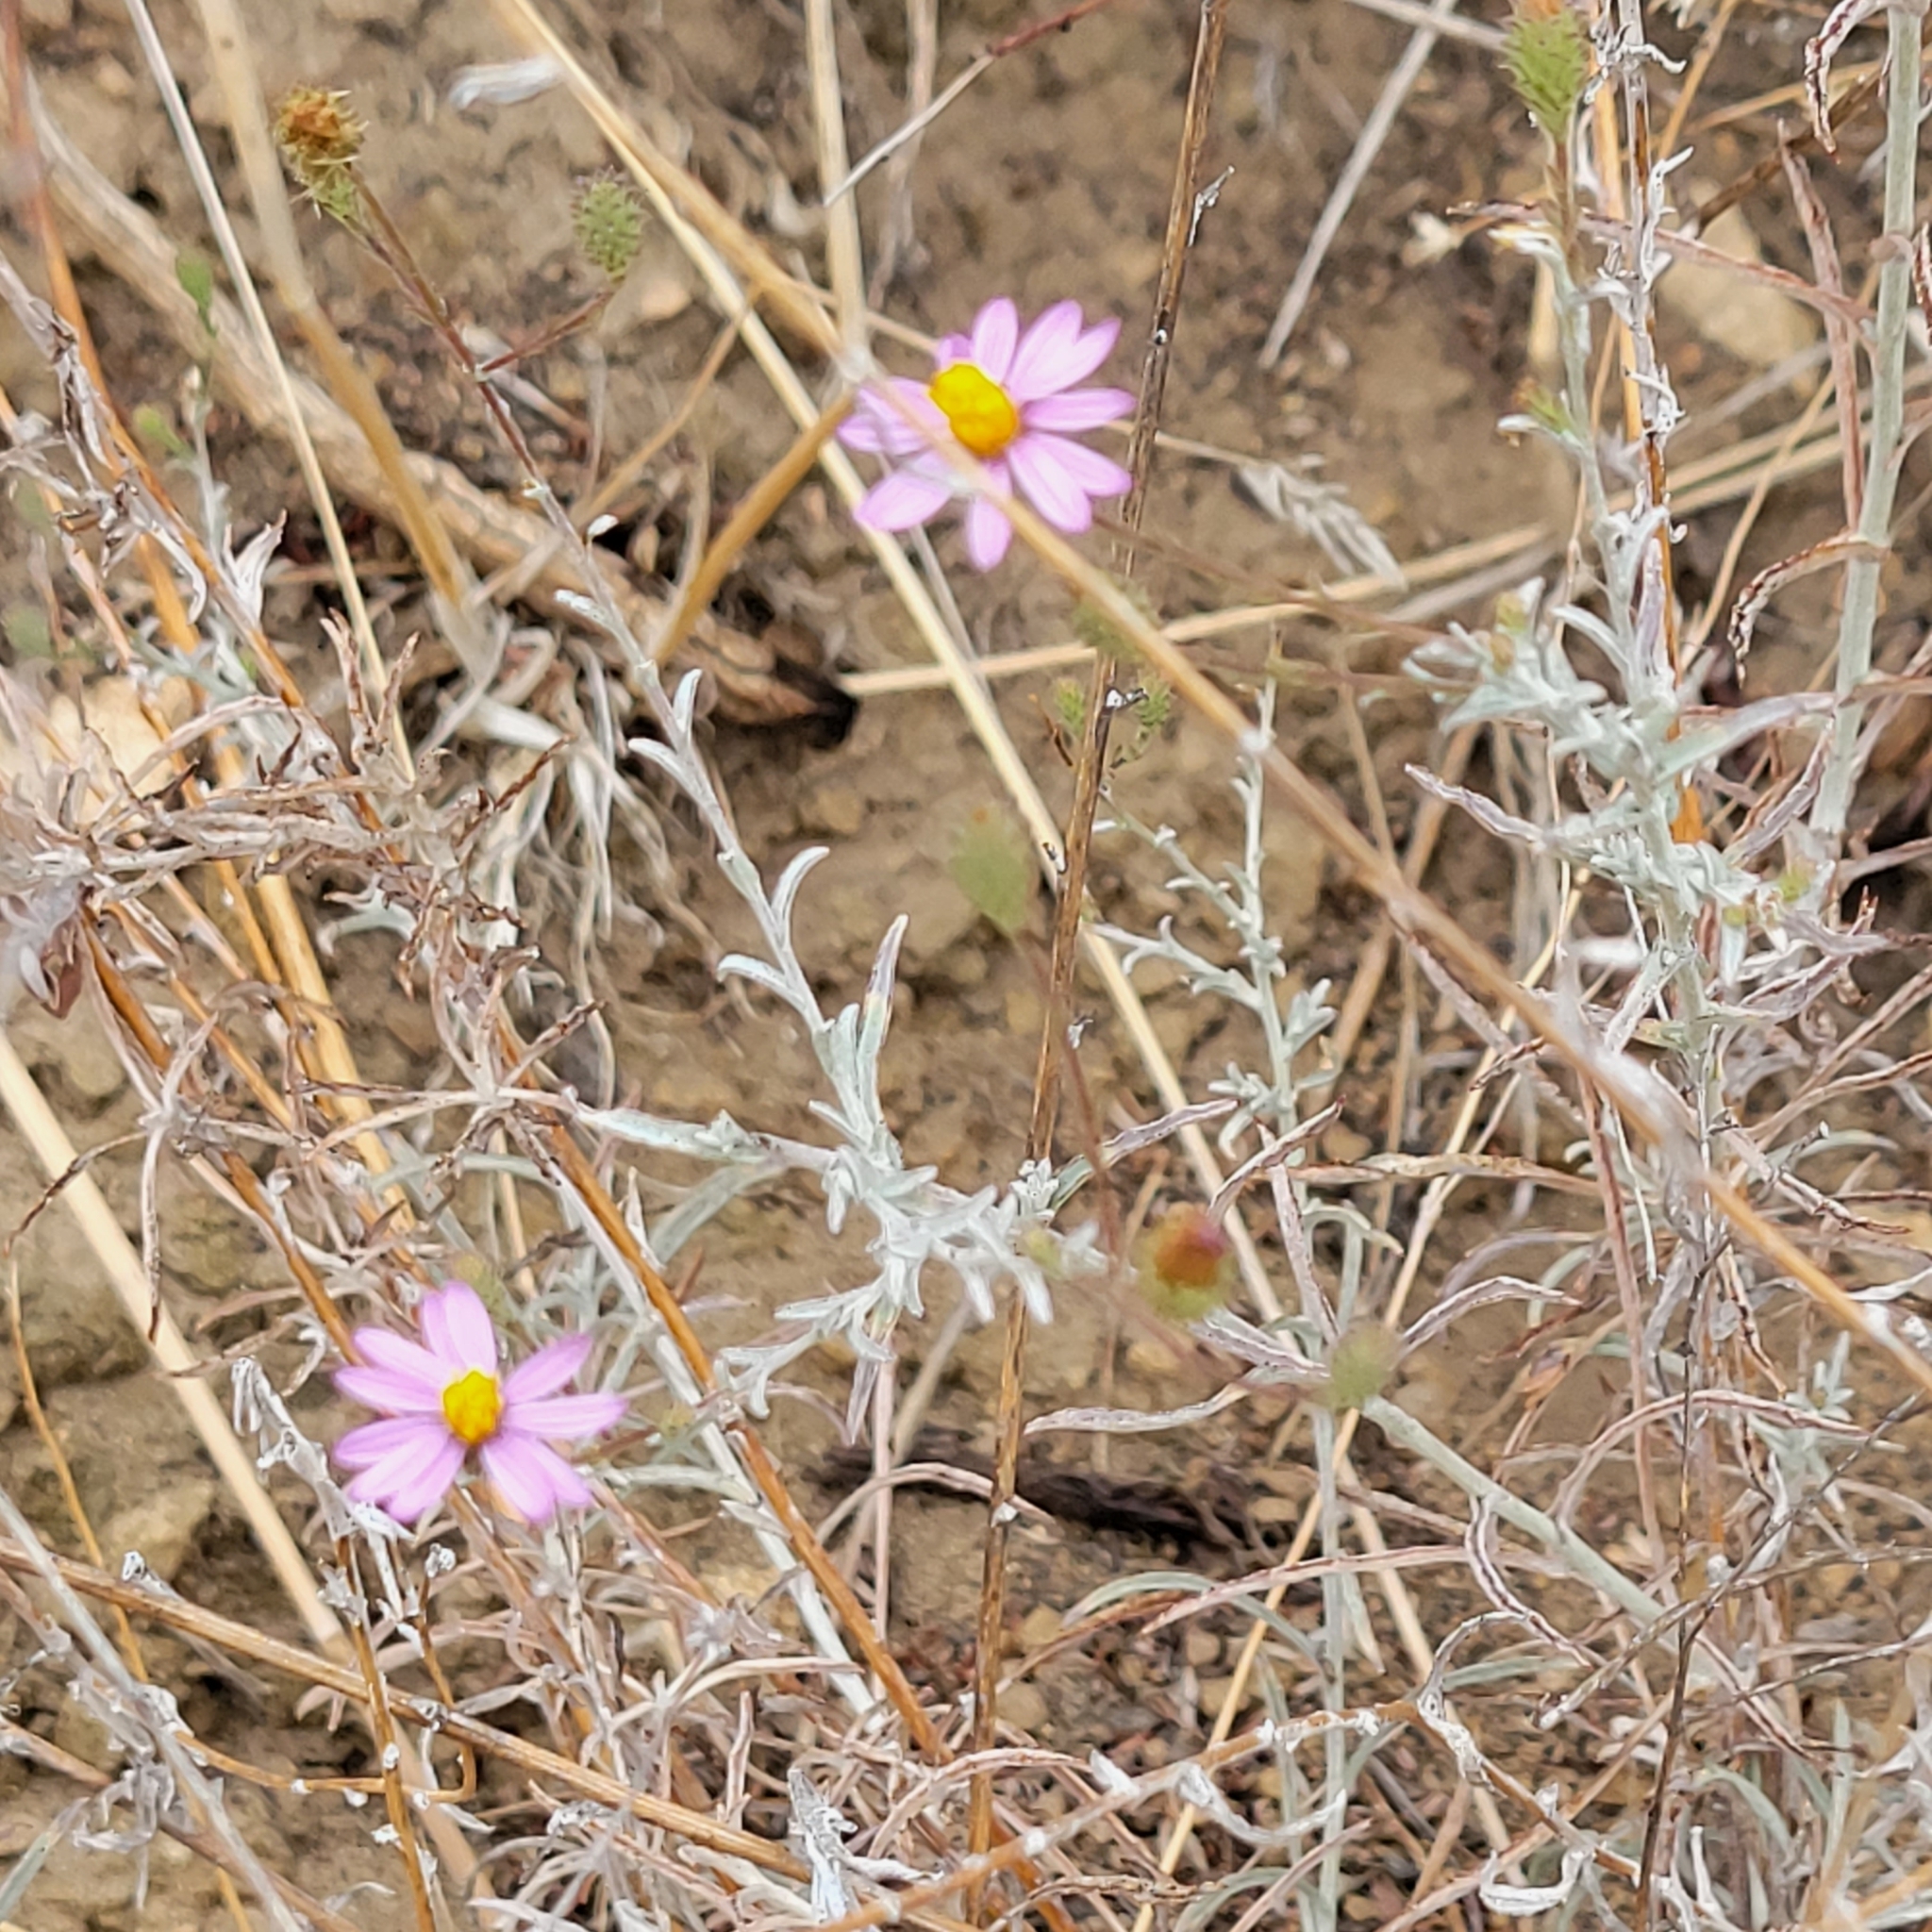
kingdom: Plantae
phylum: Tracheophyta
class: Magnoliopsida
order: Asterales
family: Asteraceae
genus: Corethrogyne
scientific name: Corethrogyne filaginifolia
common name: Sand-aster
